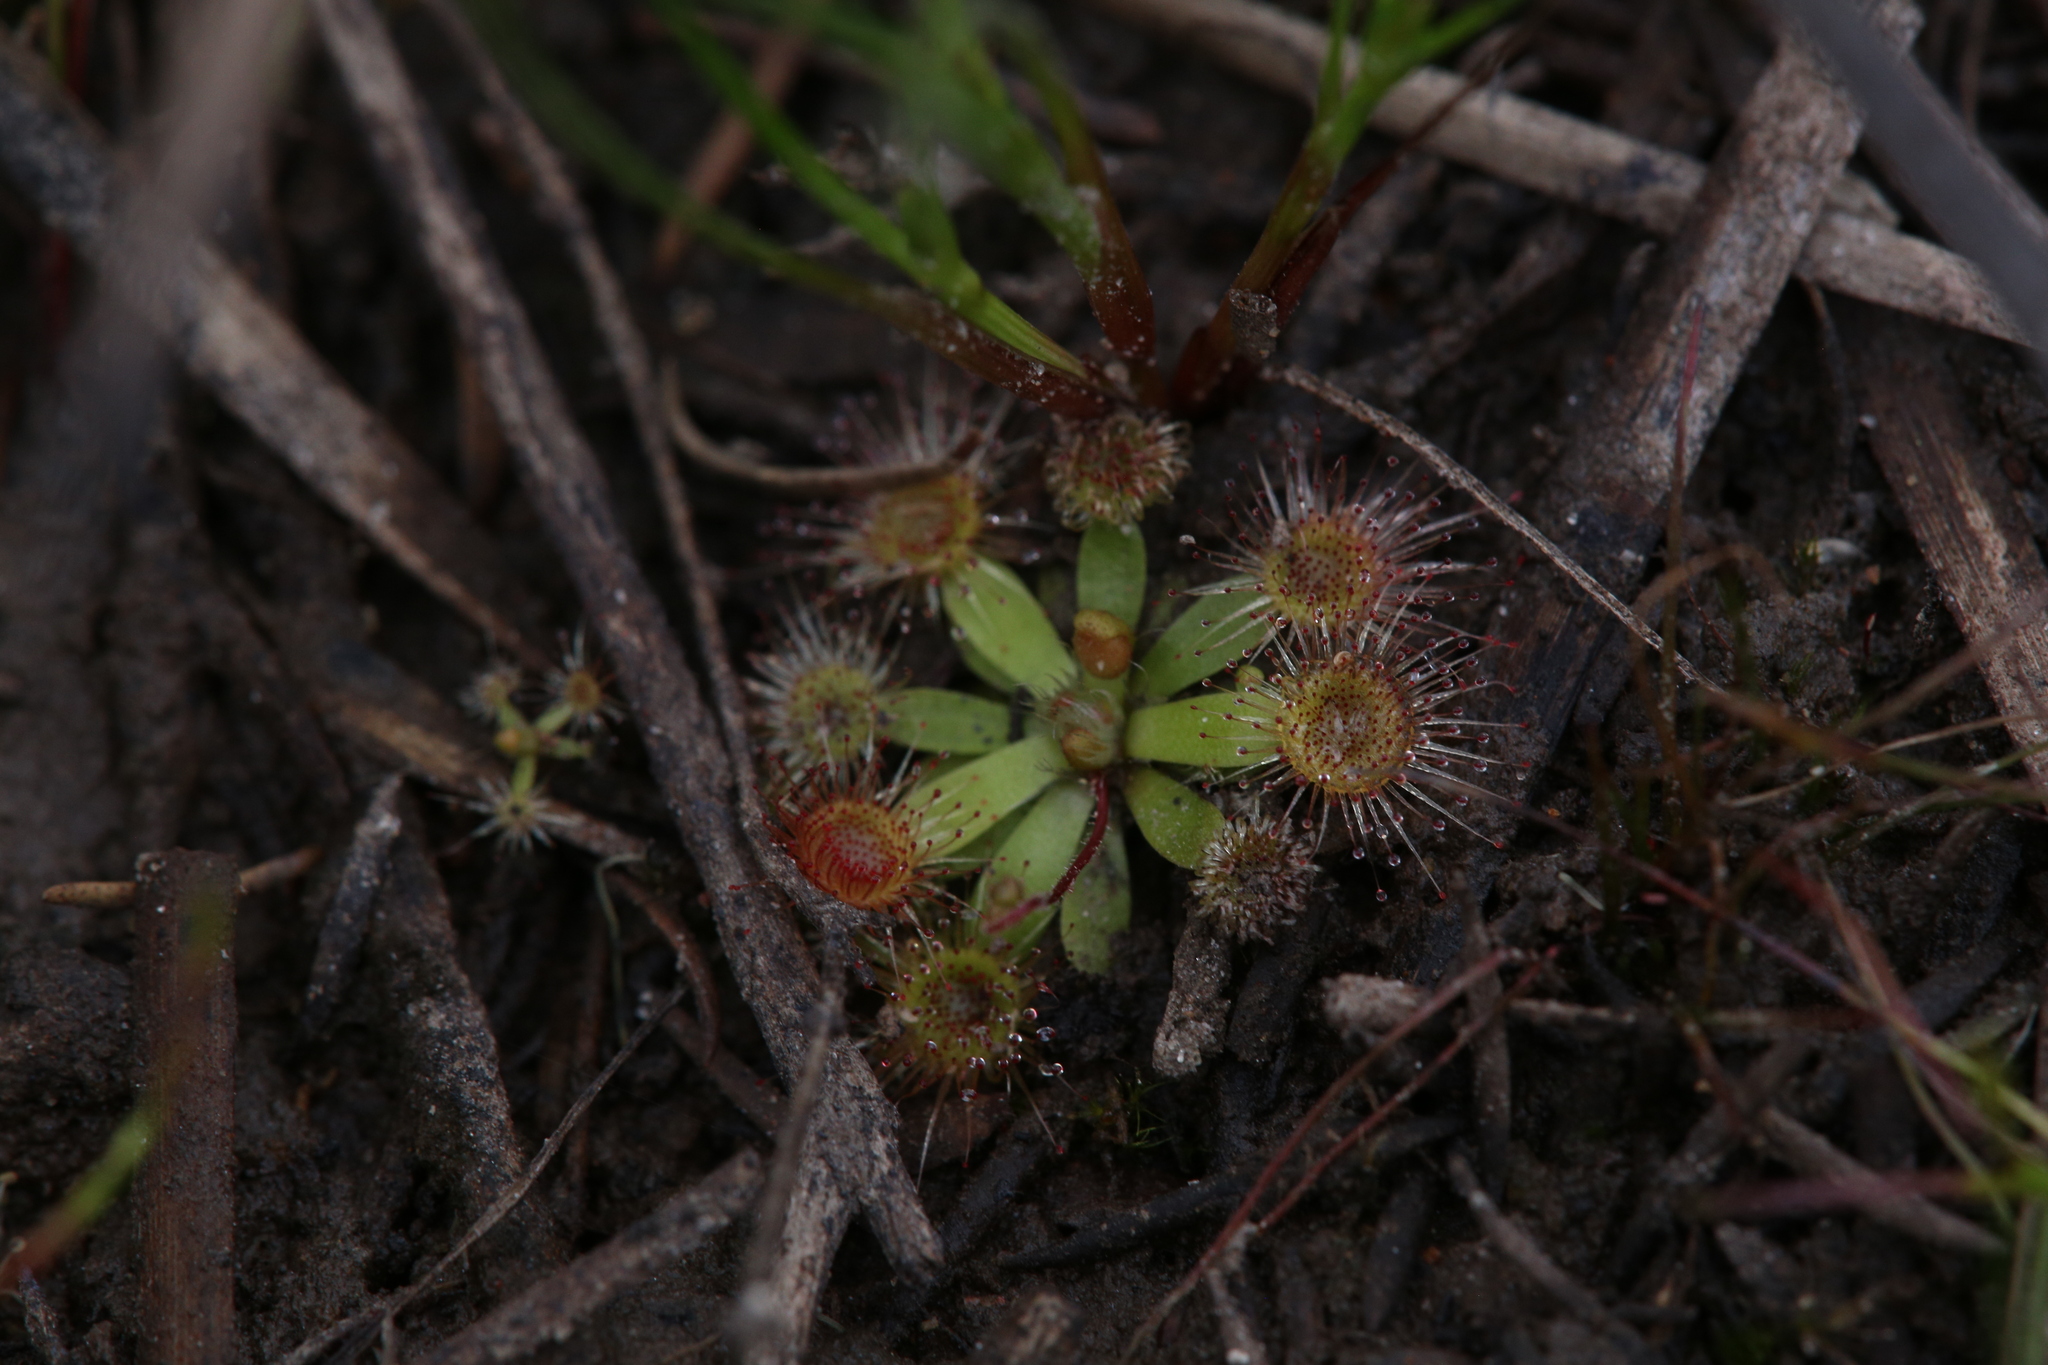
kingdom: Plantae
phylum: Tracheophyta
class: Magnoliopsida
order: Caryophyllales
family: Droseraceae
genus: Drosera
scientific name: Drosera pulchella
